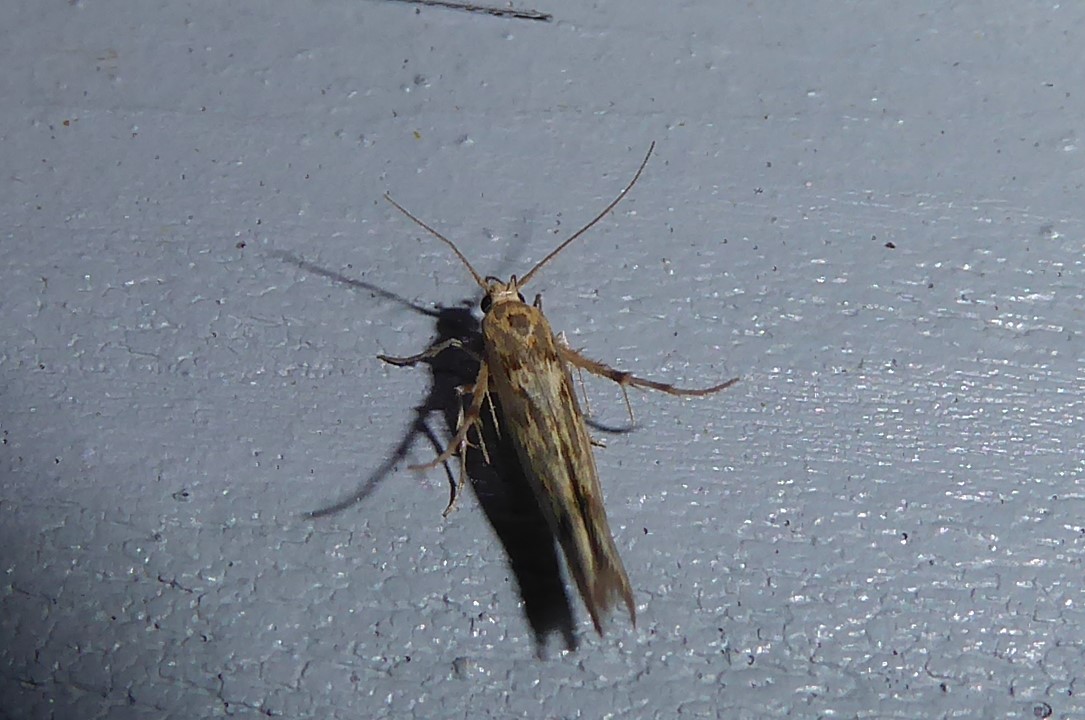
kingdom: Animalia
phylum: Arthropoda
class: Insecta
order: Lepidoptera
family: Stathmopodidae
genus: Stathmopoda
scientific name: Stathmopoda plumbiflua
